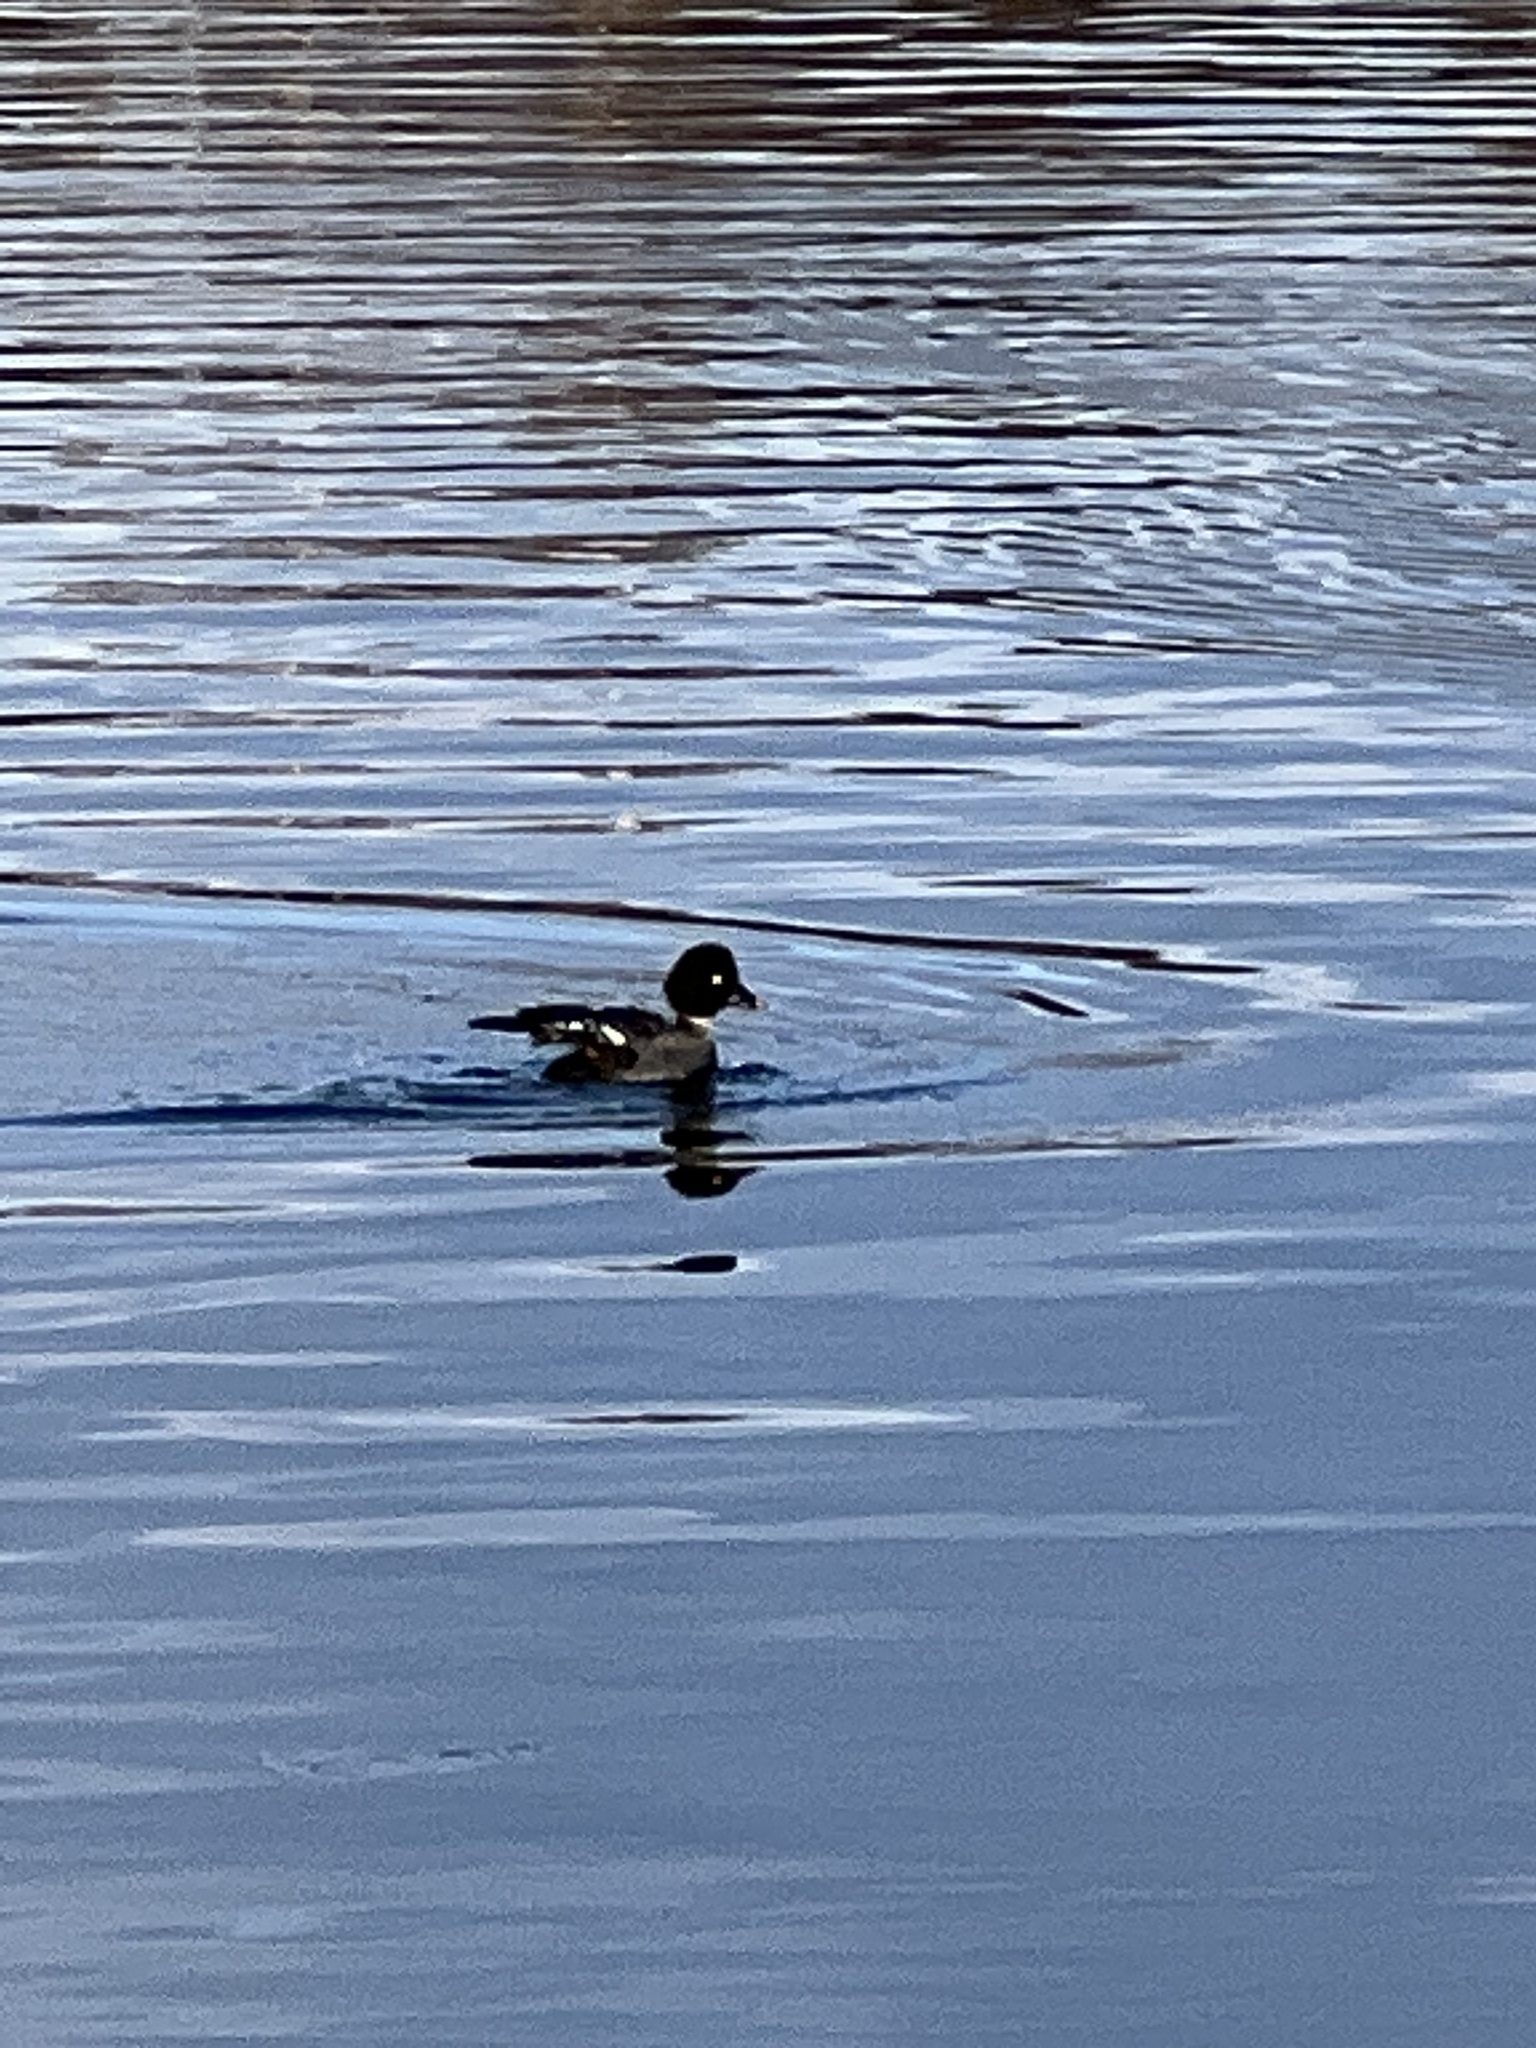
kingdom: Animalia
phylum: Chordata
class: Aves
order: Anseriformes
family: Anatidae
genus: Bucephala
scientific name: Bucephala clangula
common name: Common goldeneye
